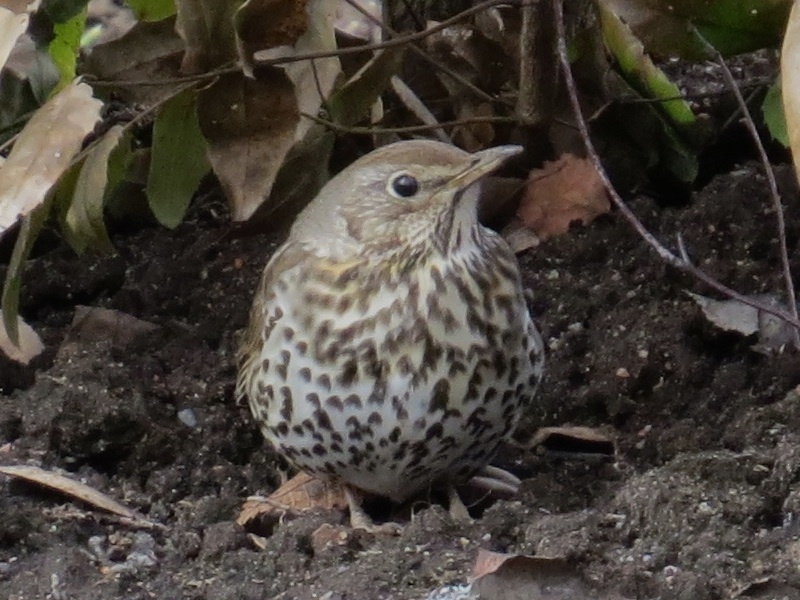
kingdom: Animalia
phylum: Chordata
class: Aves
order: Passeriformes
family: Turdidae
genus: Turdus
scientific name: Turdus philomelos
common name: Song thrush
